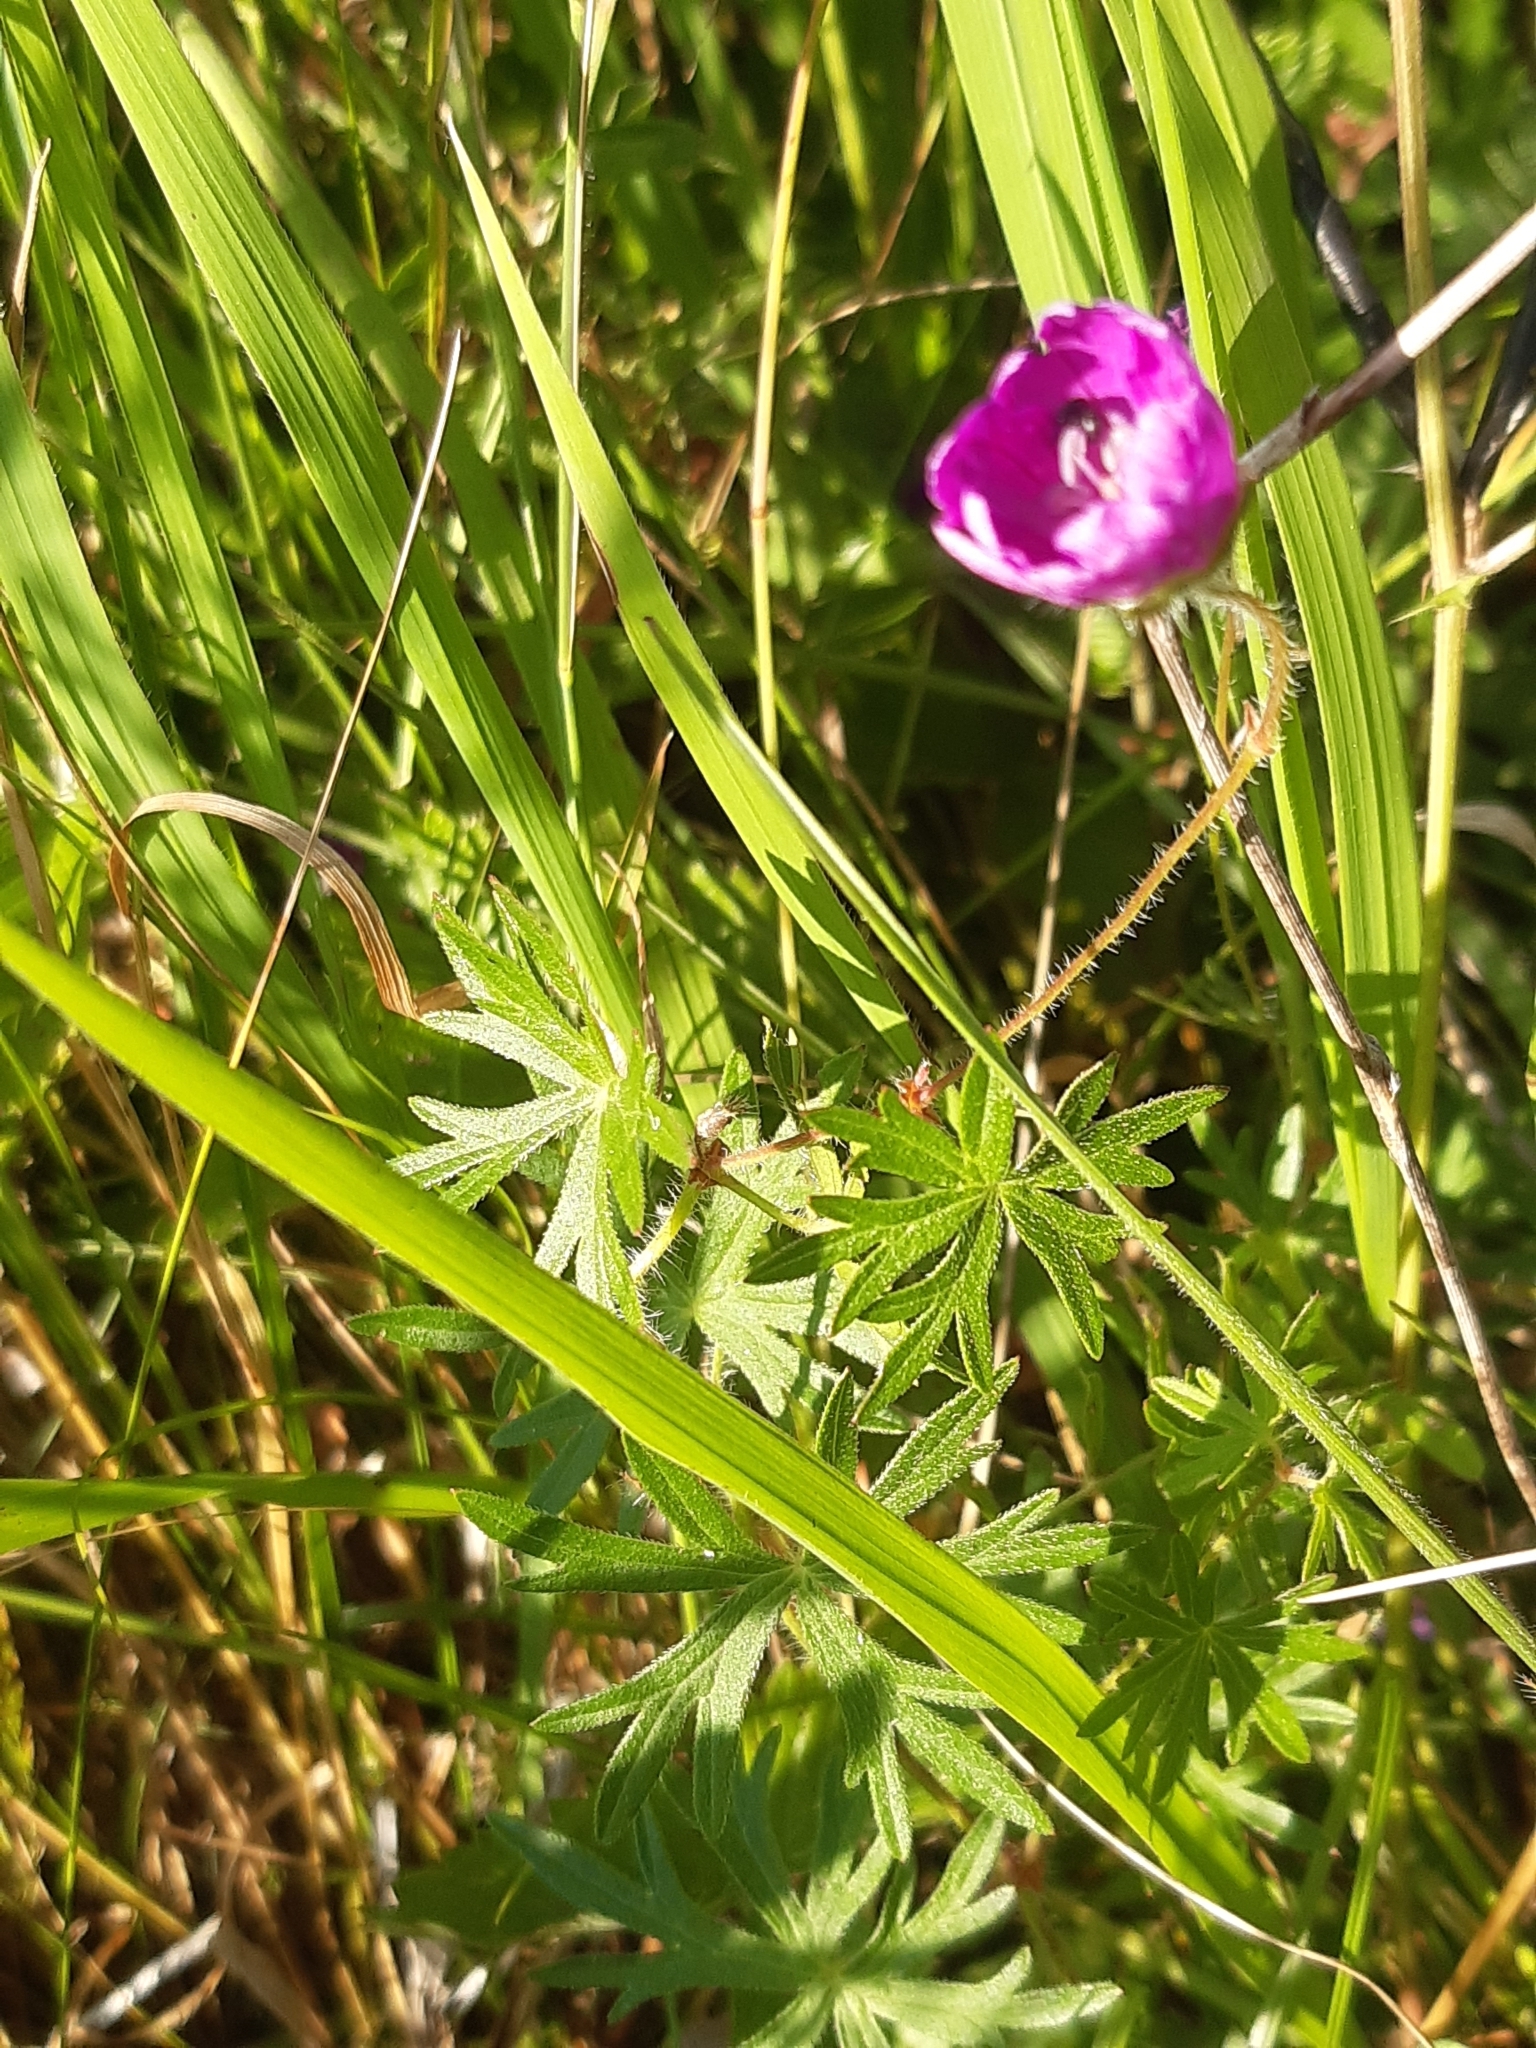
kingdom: Plantae
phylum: Tracheophyta
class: Magnoliopsida
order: Geraniales
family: Geraniaceae
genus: Geranium
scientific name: Geranium sanguineum
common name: Bloody crane's-bill
